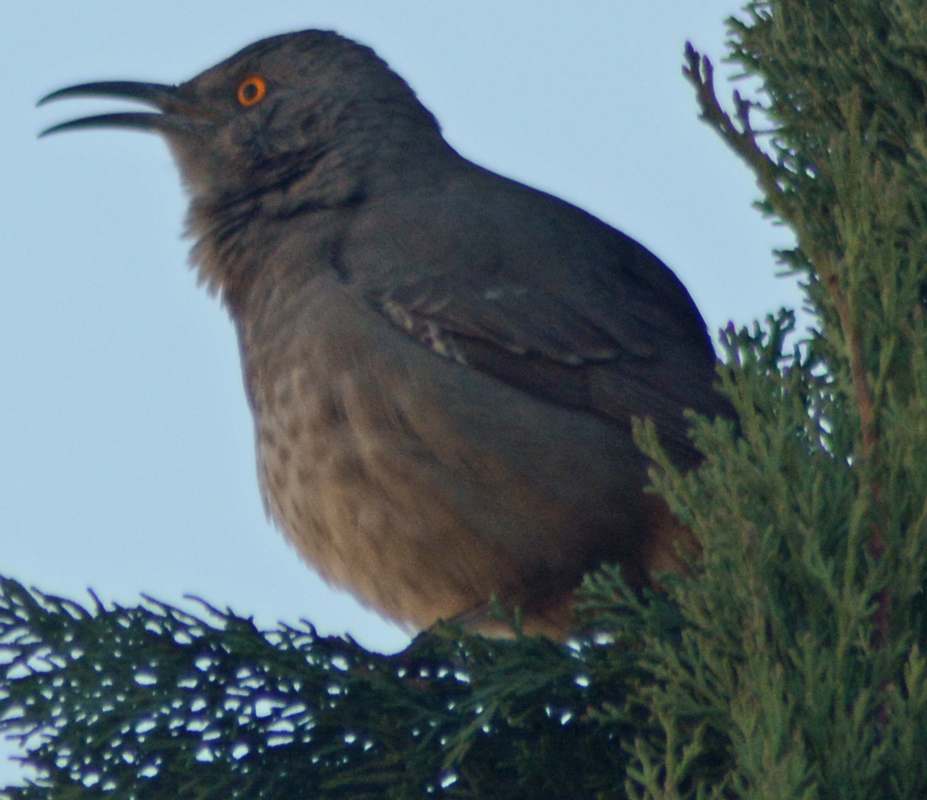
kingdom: Animalia
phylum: Chordata
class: Aves
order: Passeriformes
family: Mimidae
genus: Toxostoma
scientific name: Toxostoma curvirostre
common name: Curve-billed thrasher
